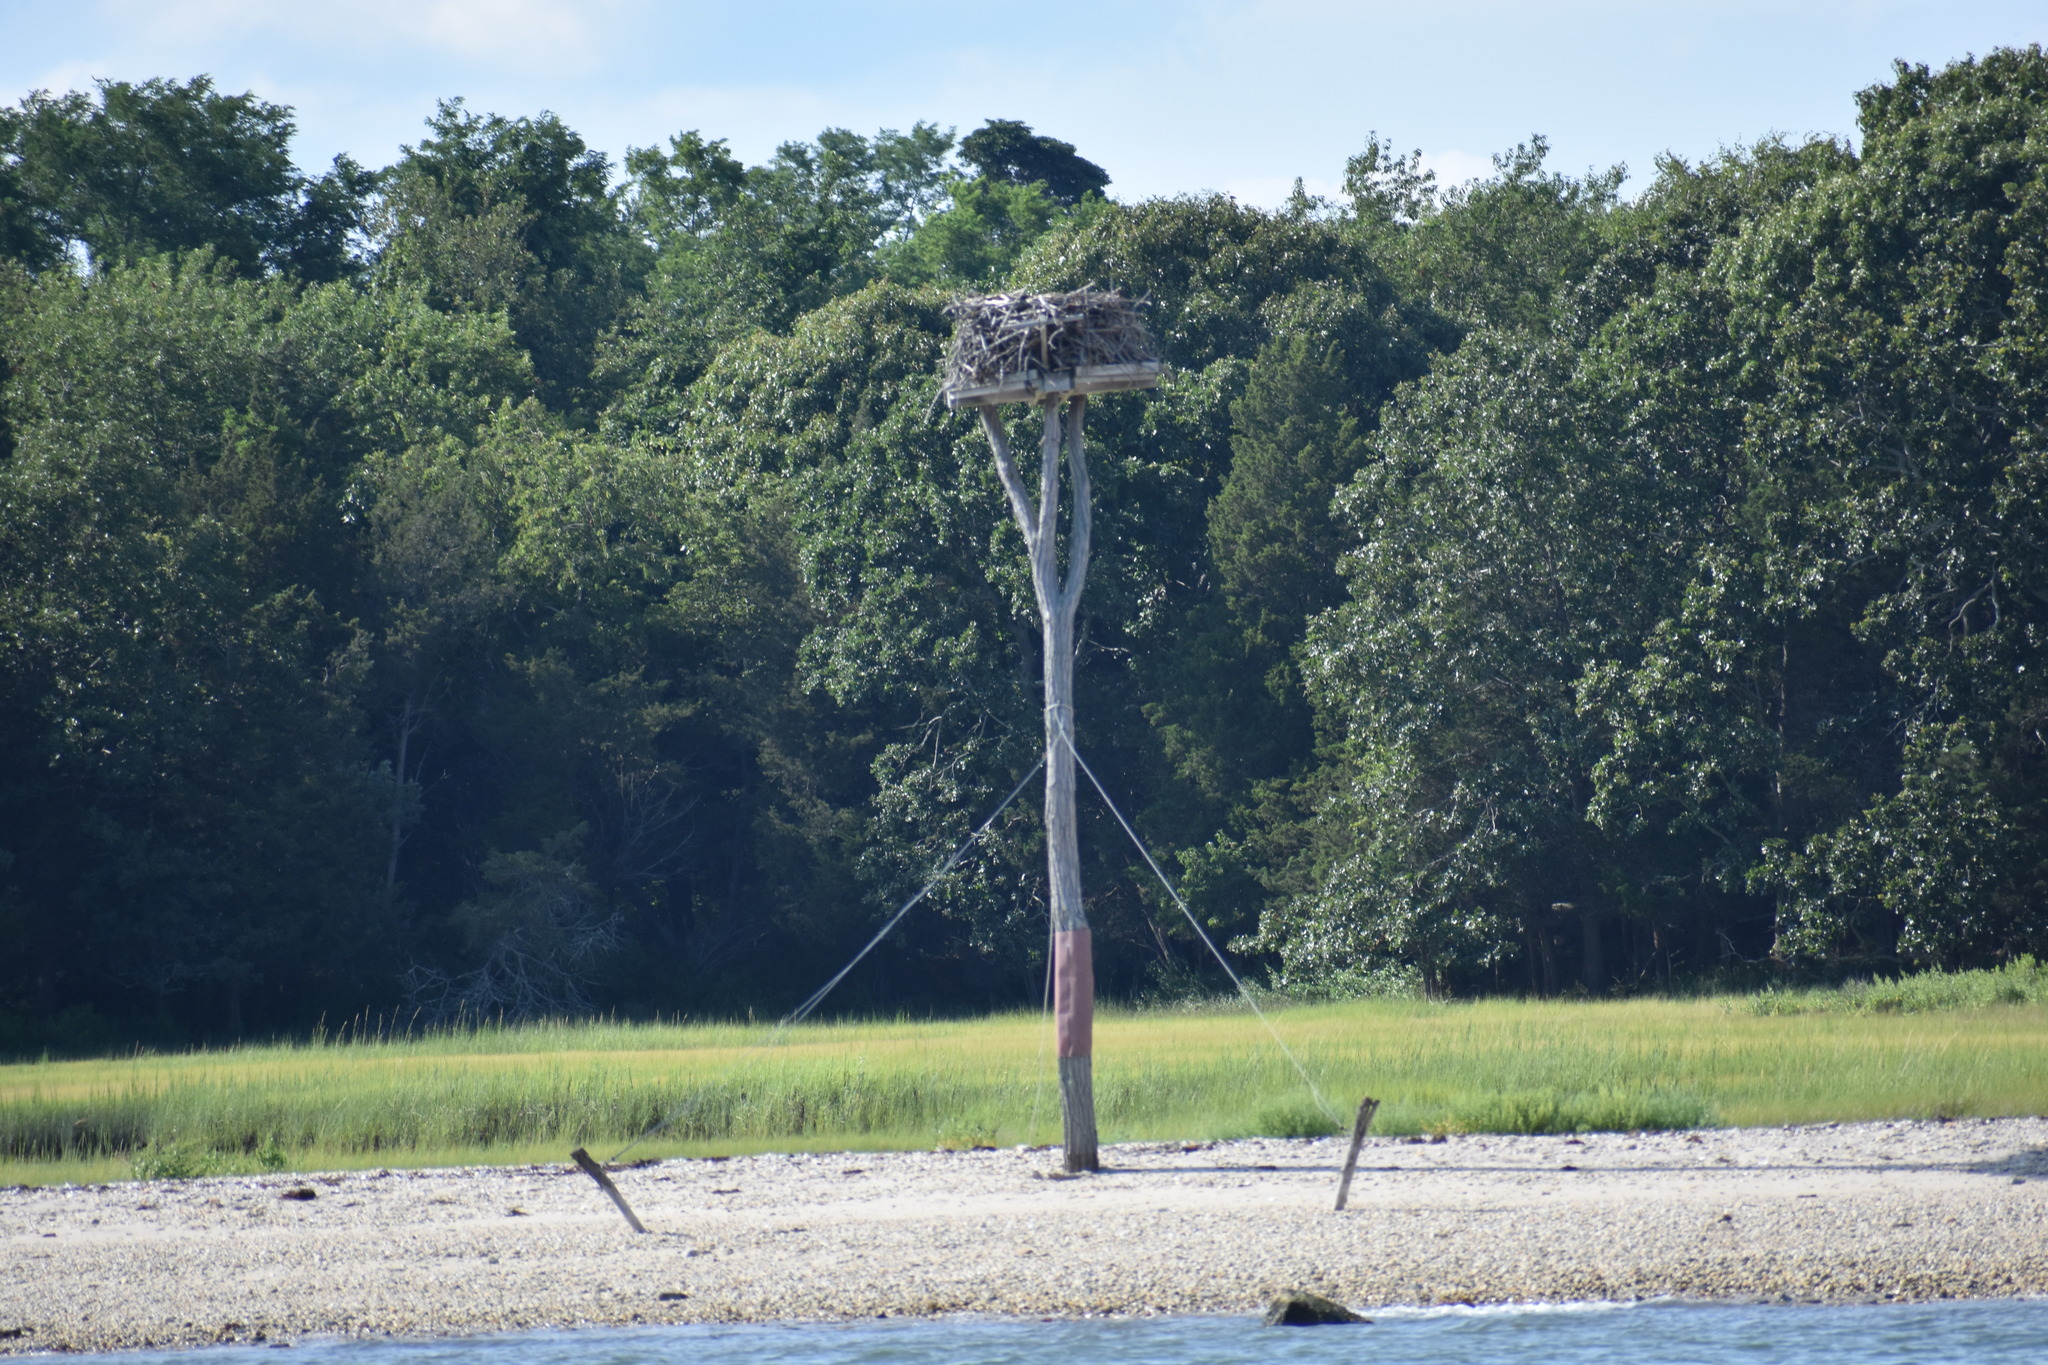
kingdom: Animalia
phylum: Chordata
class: Aves
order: Accipitriformes
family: Pandionidae
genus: Pandion
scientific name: Pandion haliaetus
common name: Osprey
